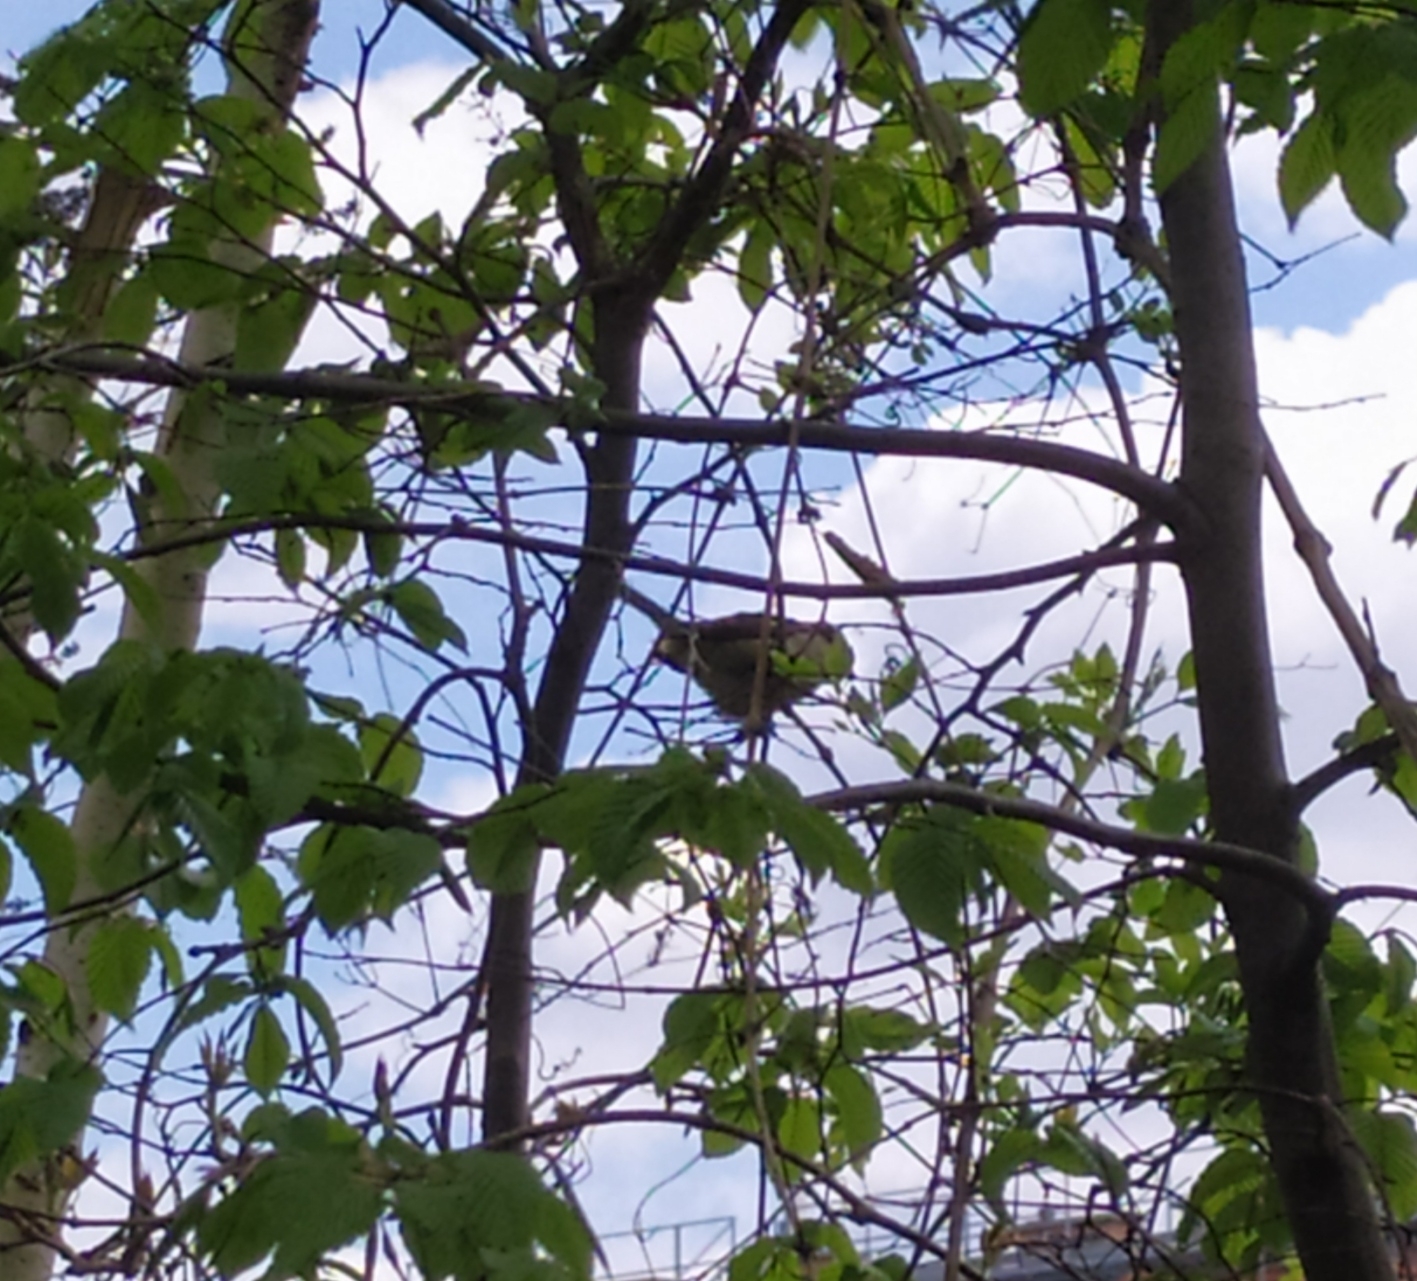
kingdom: Animalia
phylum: Chordata
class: Aves
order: Passeriformes
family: Passeridae
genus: Passer
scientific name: Passer domesticus
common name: House sparrow
